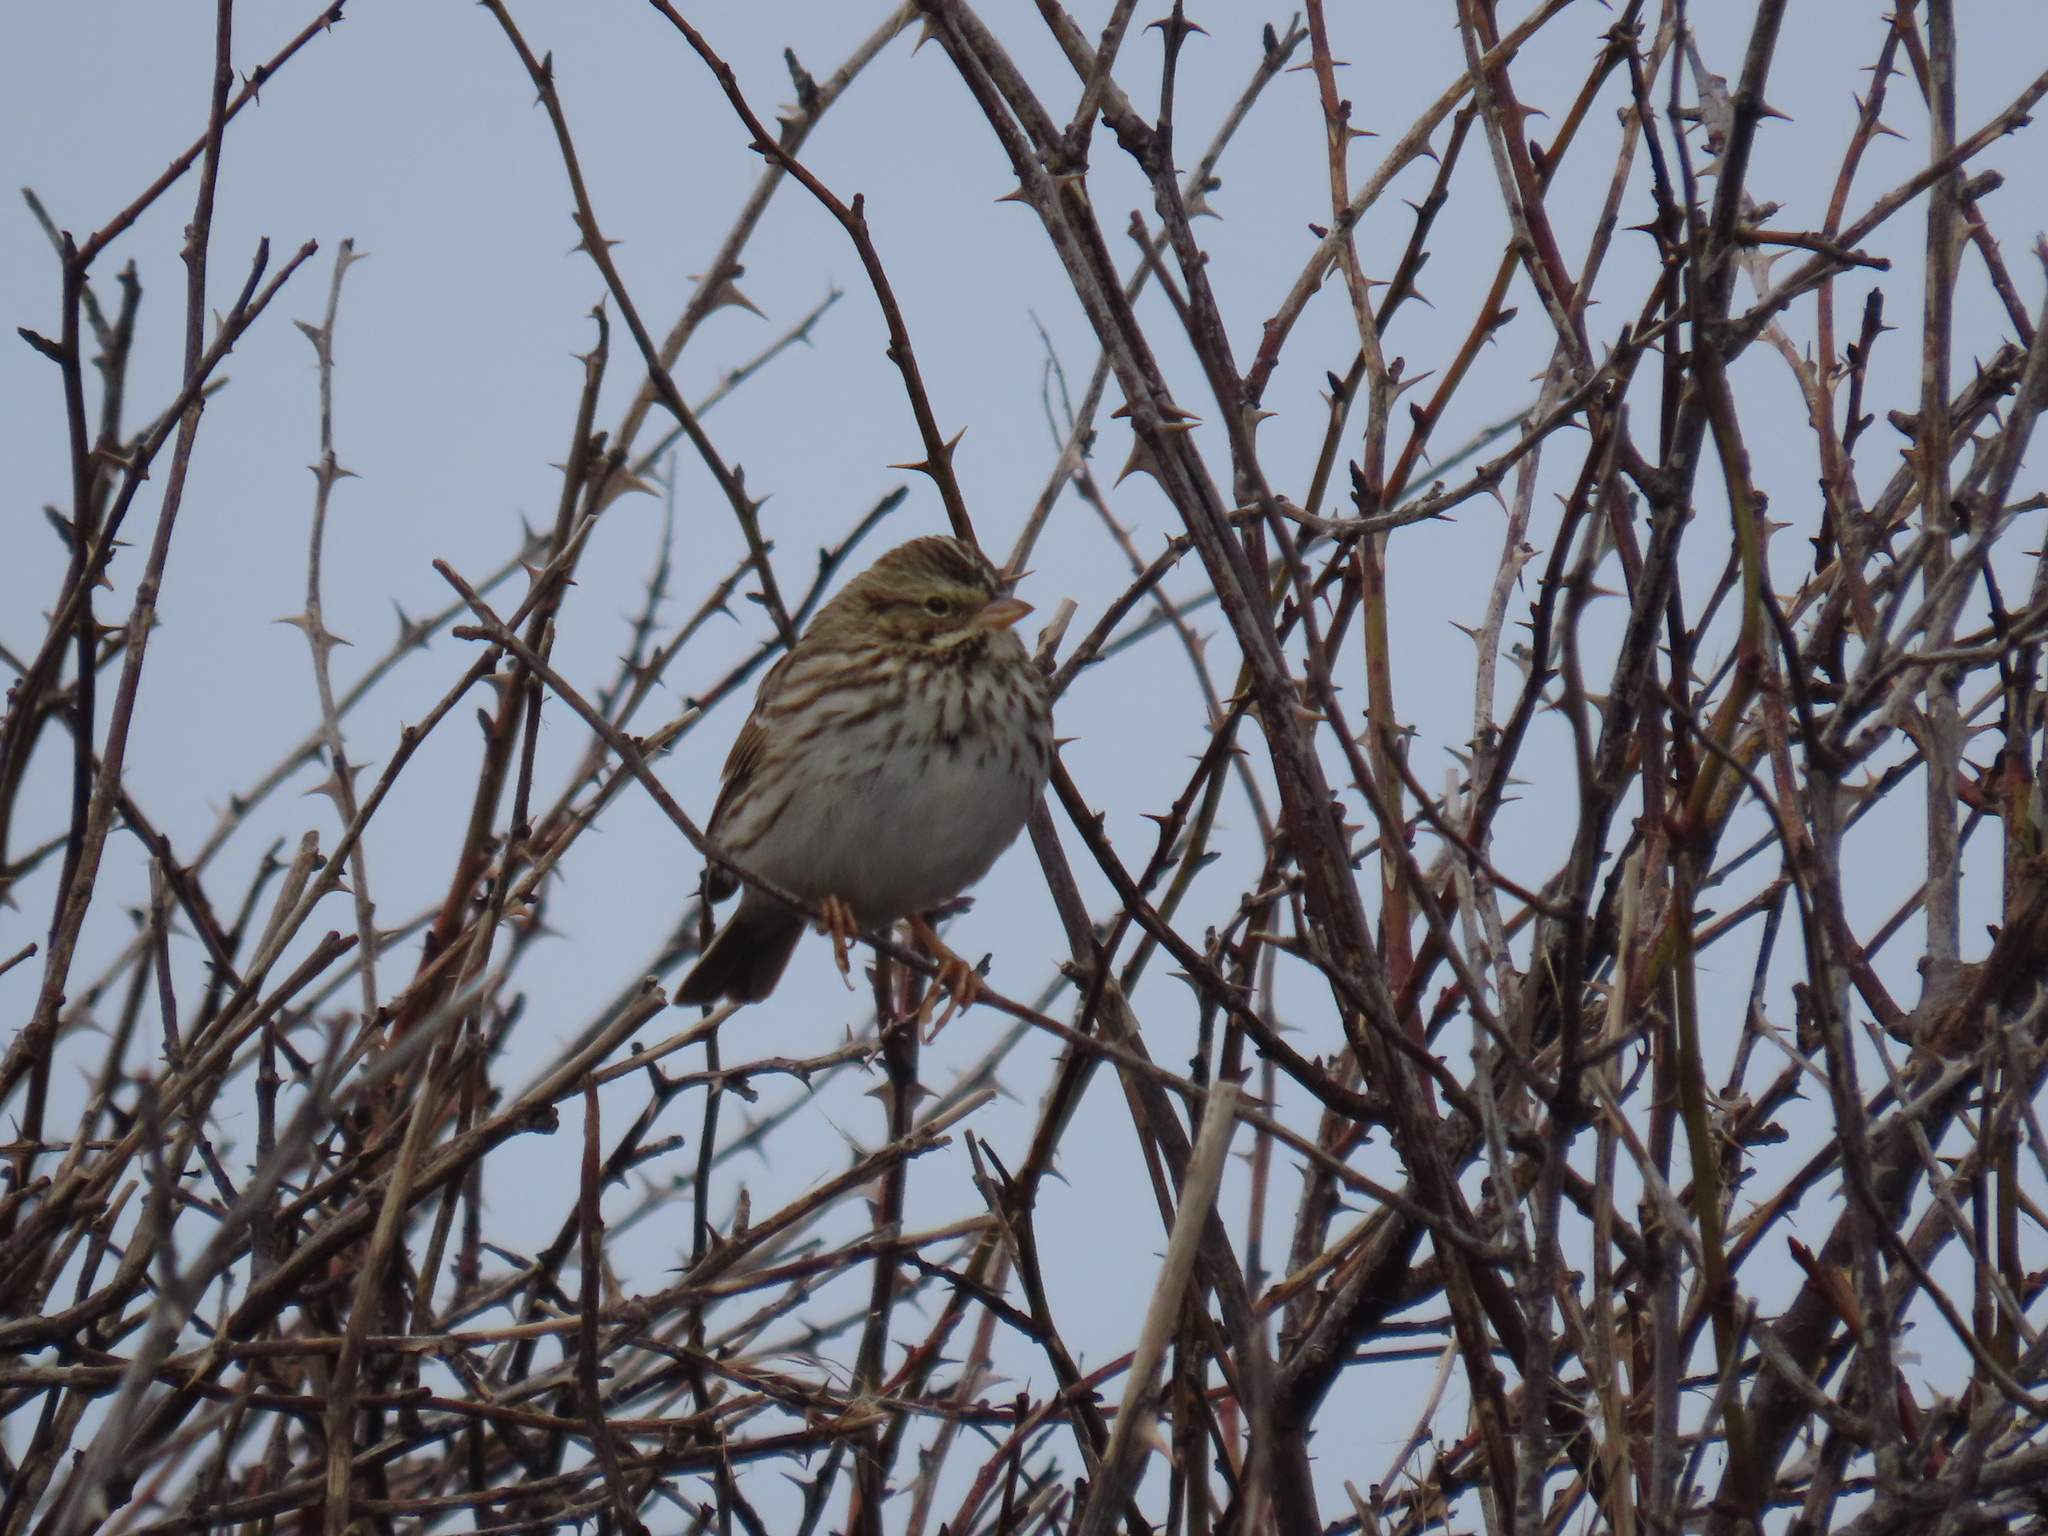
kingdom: Animalia
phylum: Chordata
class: Aves
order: Passeriformes
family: Passerellidae
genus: Passerculus
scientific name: Passerculus sandwichensis
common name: Savannah sparrow
